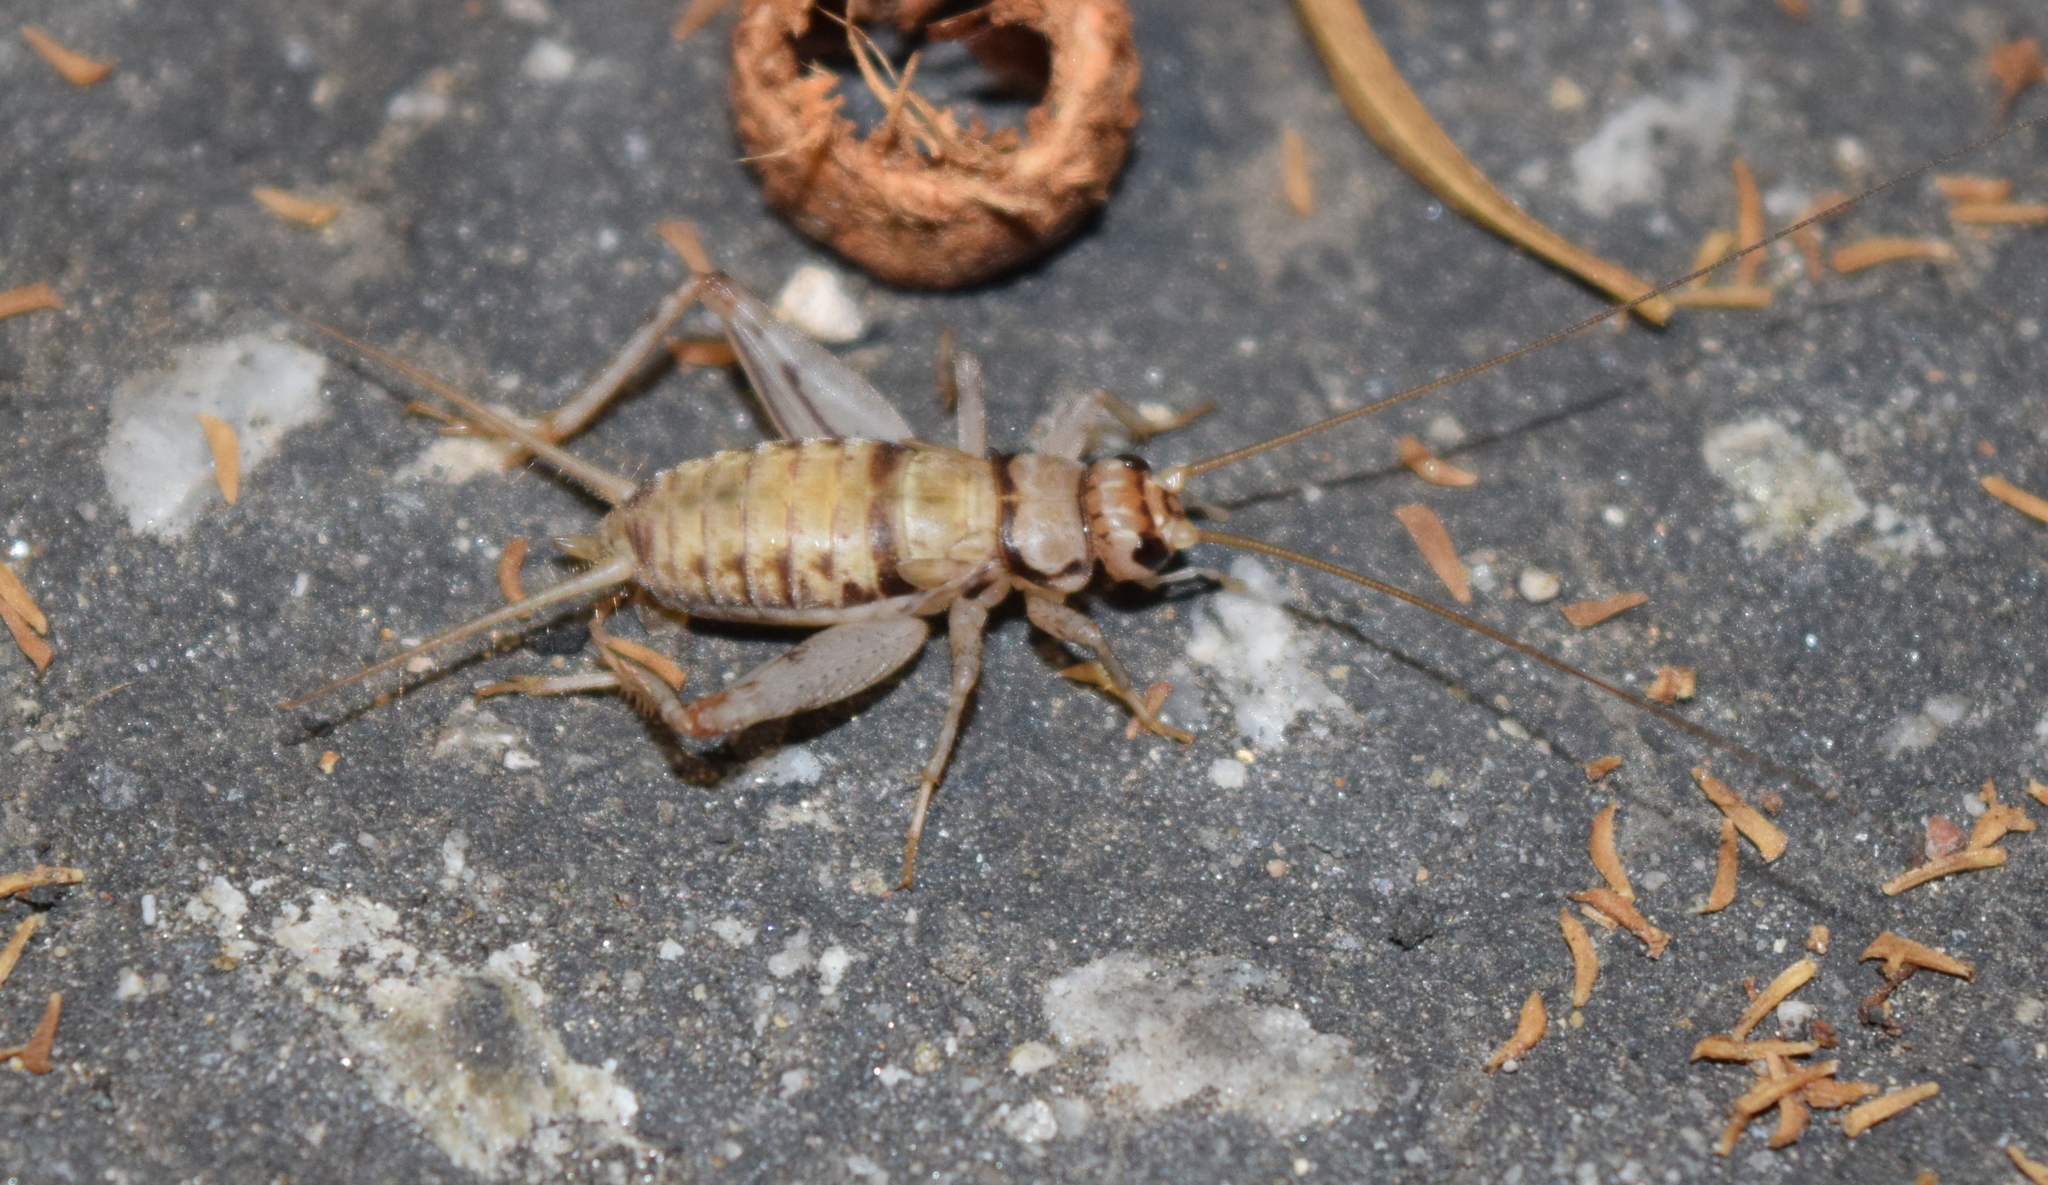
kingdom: Animalia
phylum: Arthropoda
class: Insecta
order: Orthoptera
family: Gryllidae
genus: Gryllodes
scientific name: Gryllodes sigillatus
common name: Tropical house cricket
